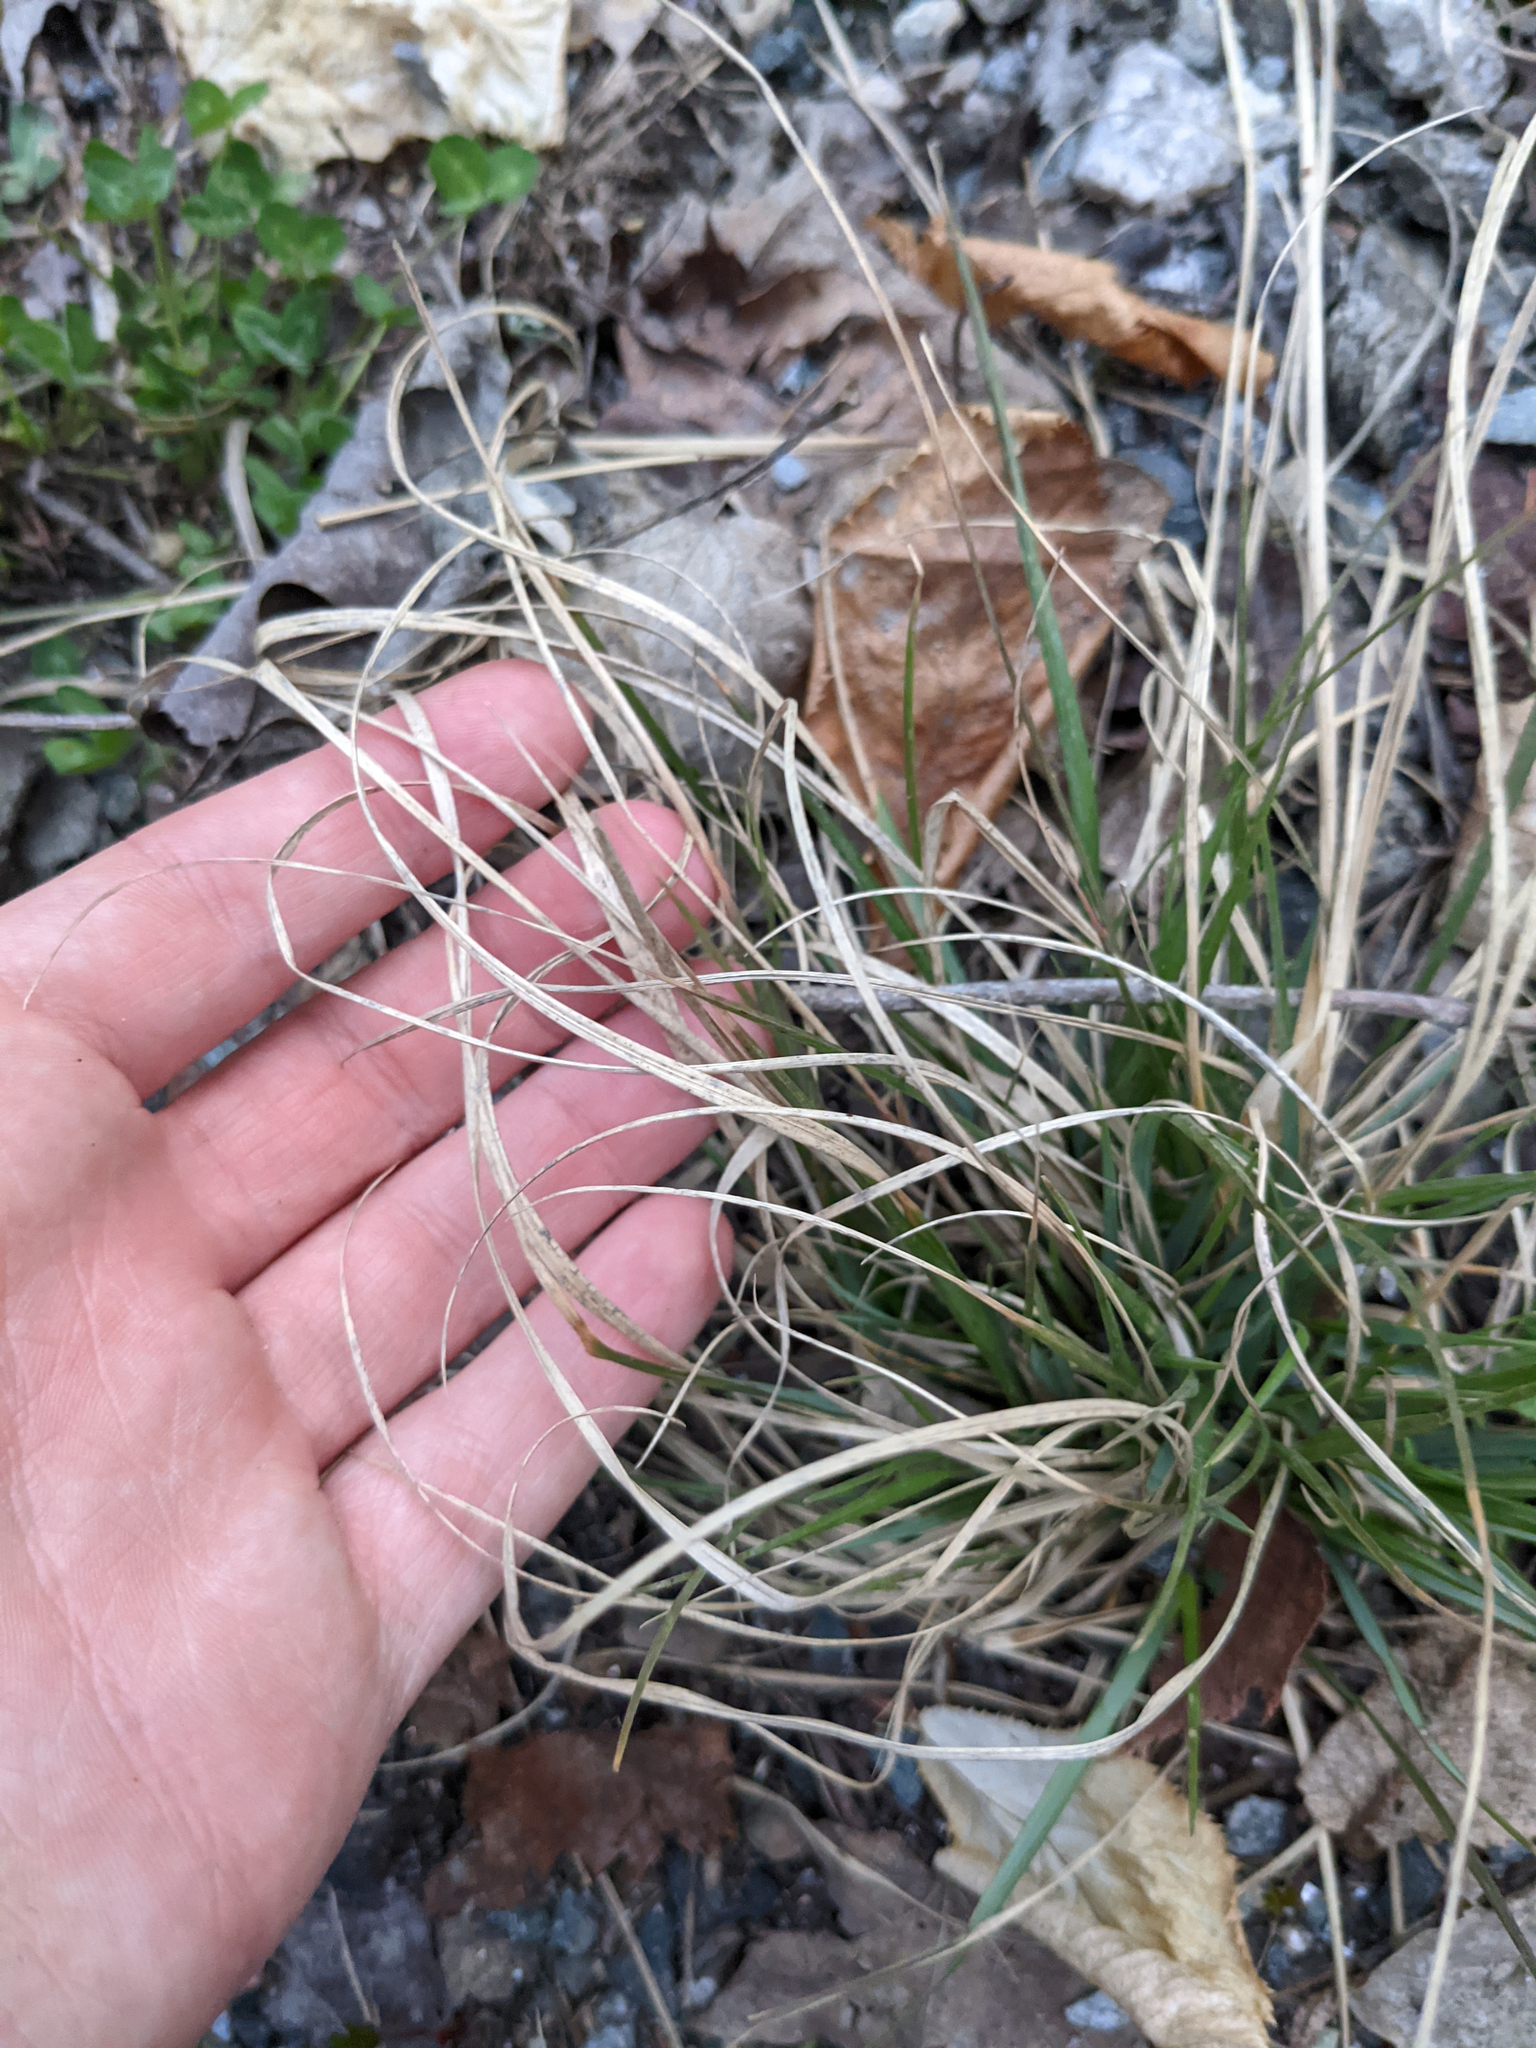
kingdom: Plantae
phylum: Tracheophyta
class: Liliopsida
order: Poales
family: Poaceae
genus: Danthonia
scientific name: Danthonia spicata
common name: Common wild oatgrass
